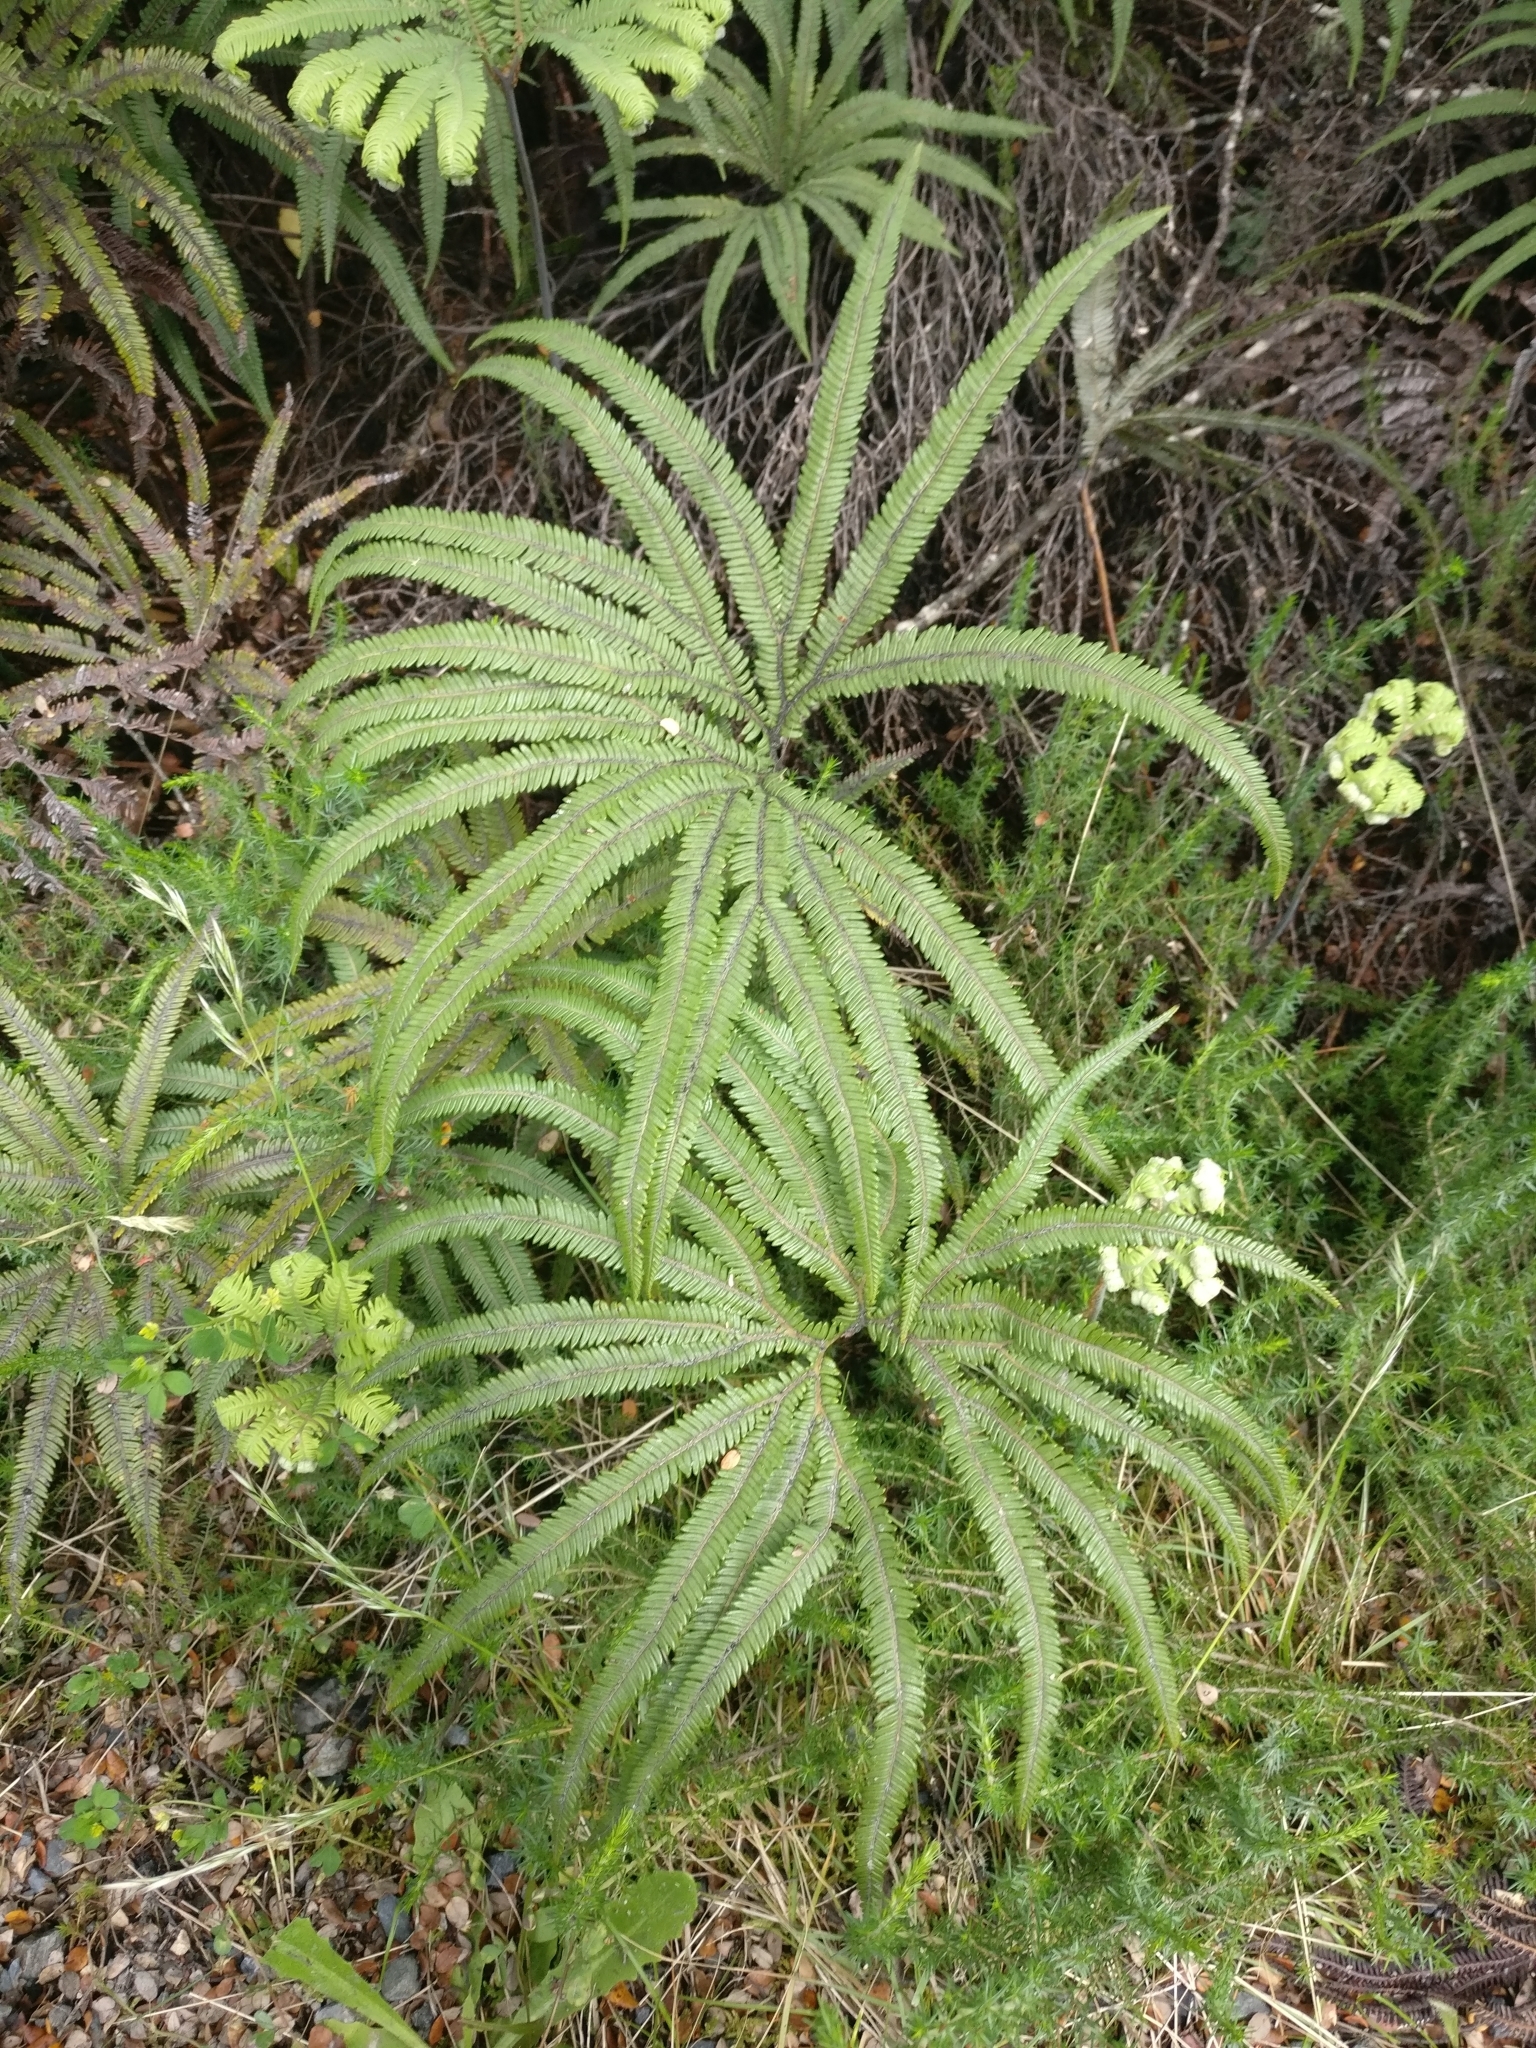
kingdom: Plantae
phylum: Tracheophyta
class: Polypodiopsida
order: Gleicheniales
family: Gleicheniaceae
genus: Sticherus
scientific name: Sticherus cunninghamii
